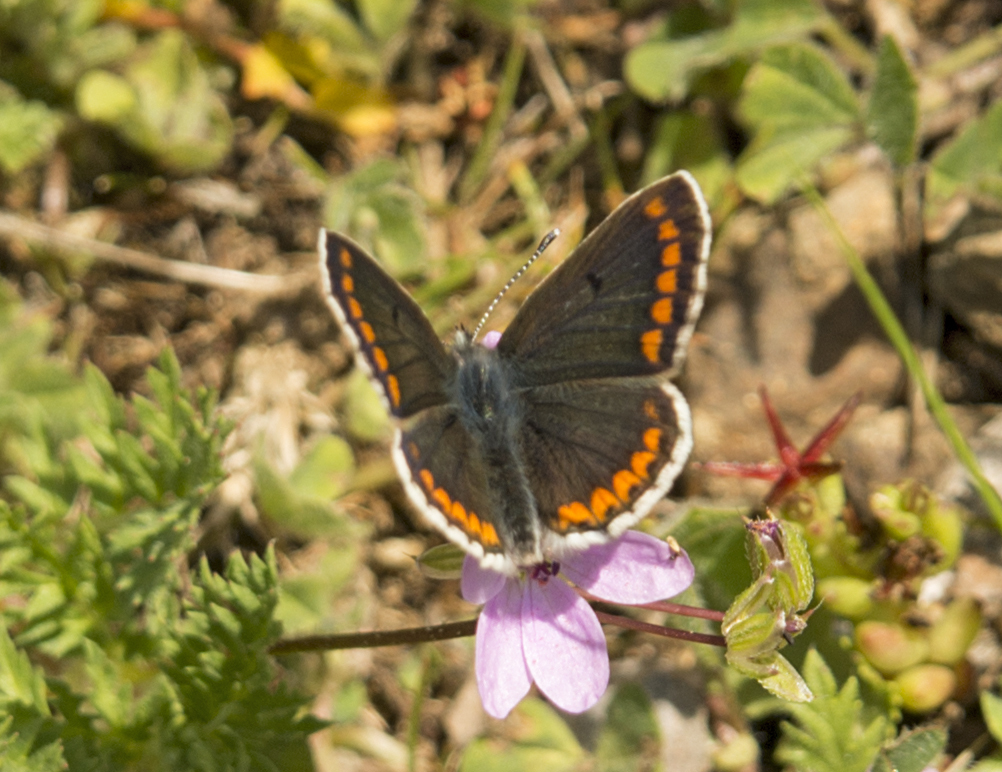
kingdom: Animalia
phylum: Arthropoda
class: Insecta
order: Lepidoptera
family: Lycaenidae
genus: Aricia
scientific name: Aricia agestis
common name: Brown argus
